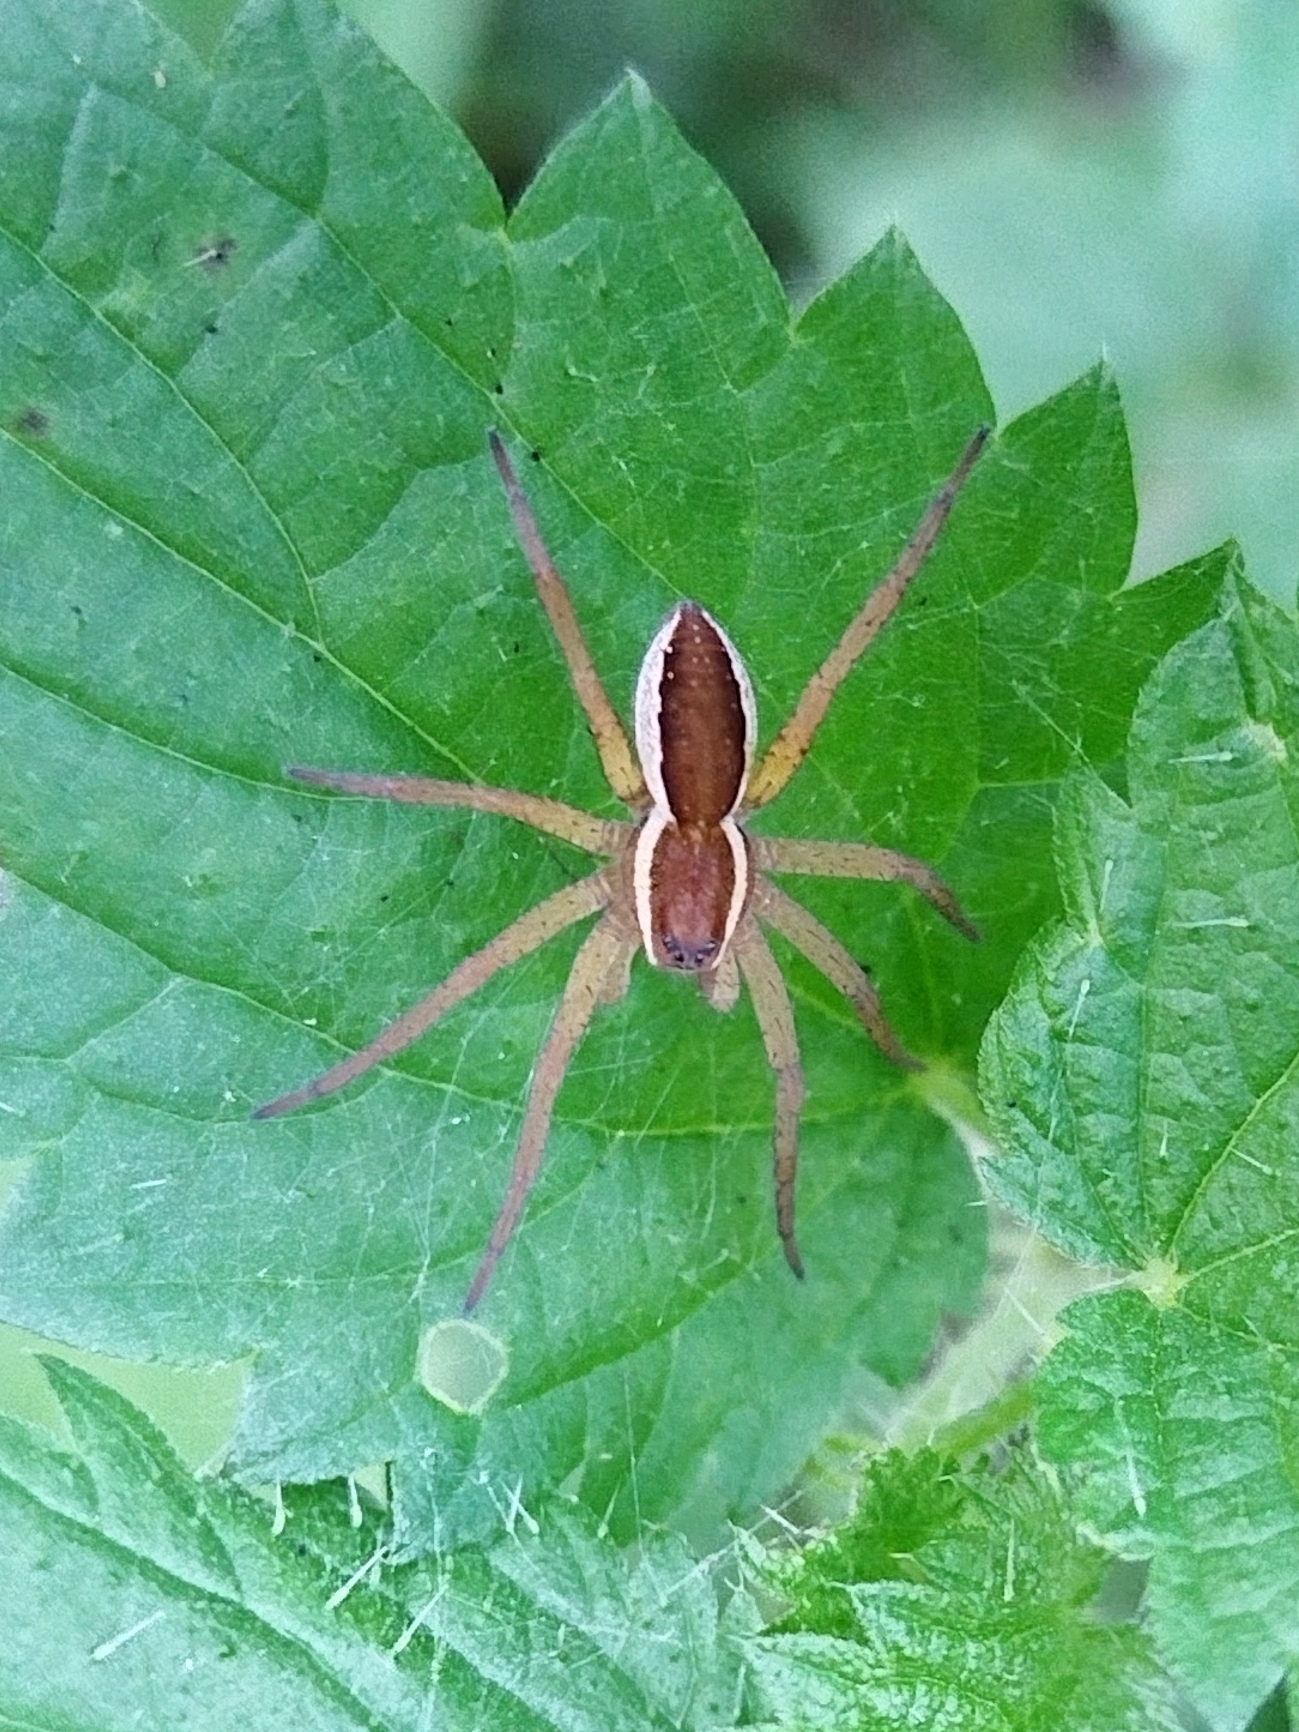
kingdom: Animalia
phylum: Arthropoda
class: Arachnida
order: Araneae
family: Pisauridae
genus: Dolomedes
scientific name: Dolomedes
